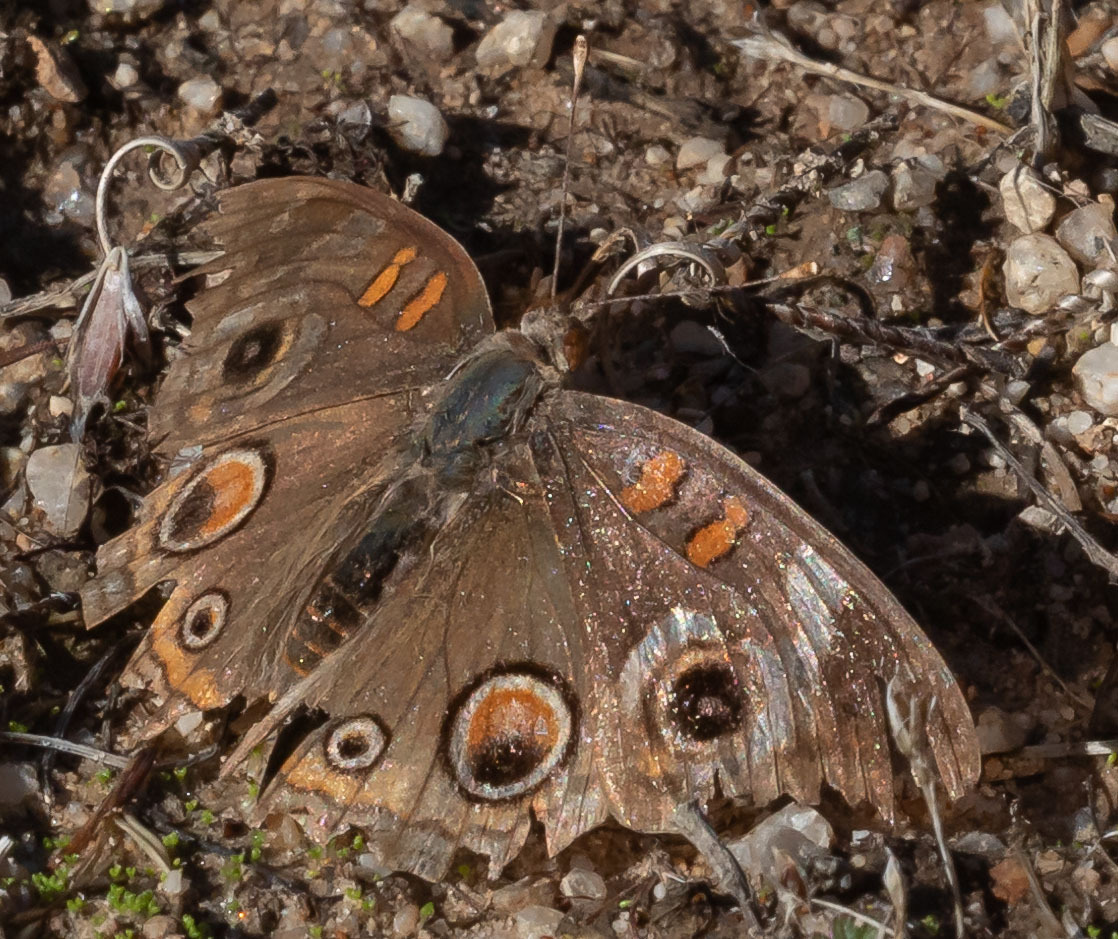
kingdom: Animalia
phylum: Arthropoda
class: Insecta
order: Lepidoptera
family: Nymphalidae
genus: Junonia
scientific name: Junonia grisea
